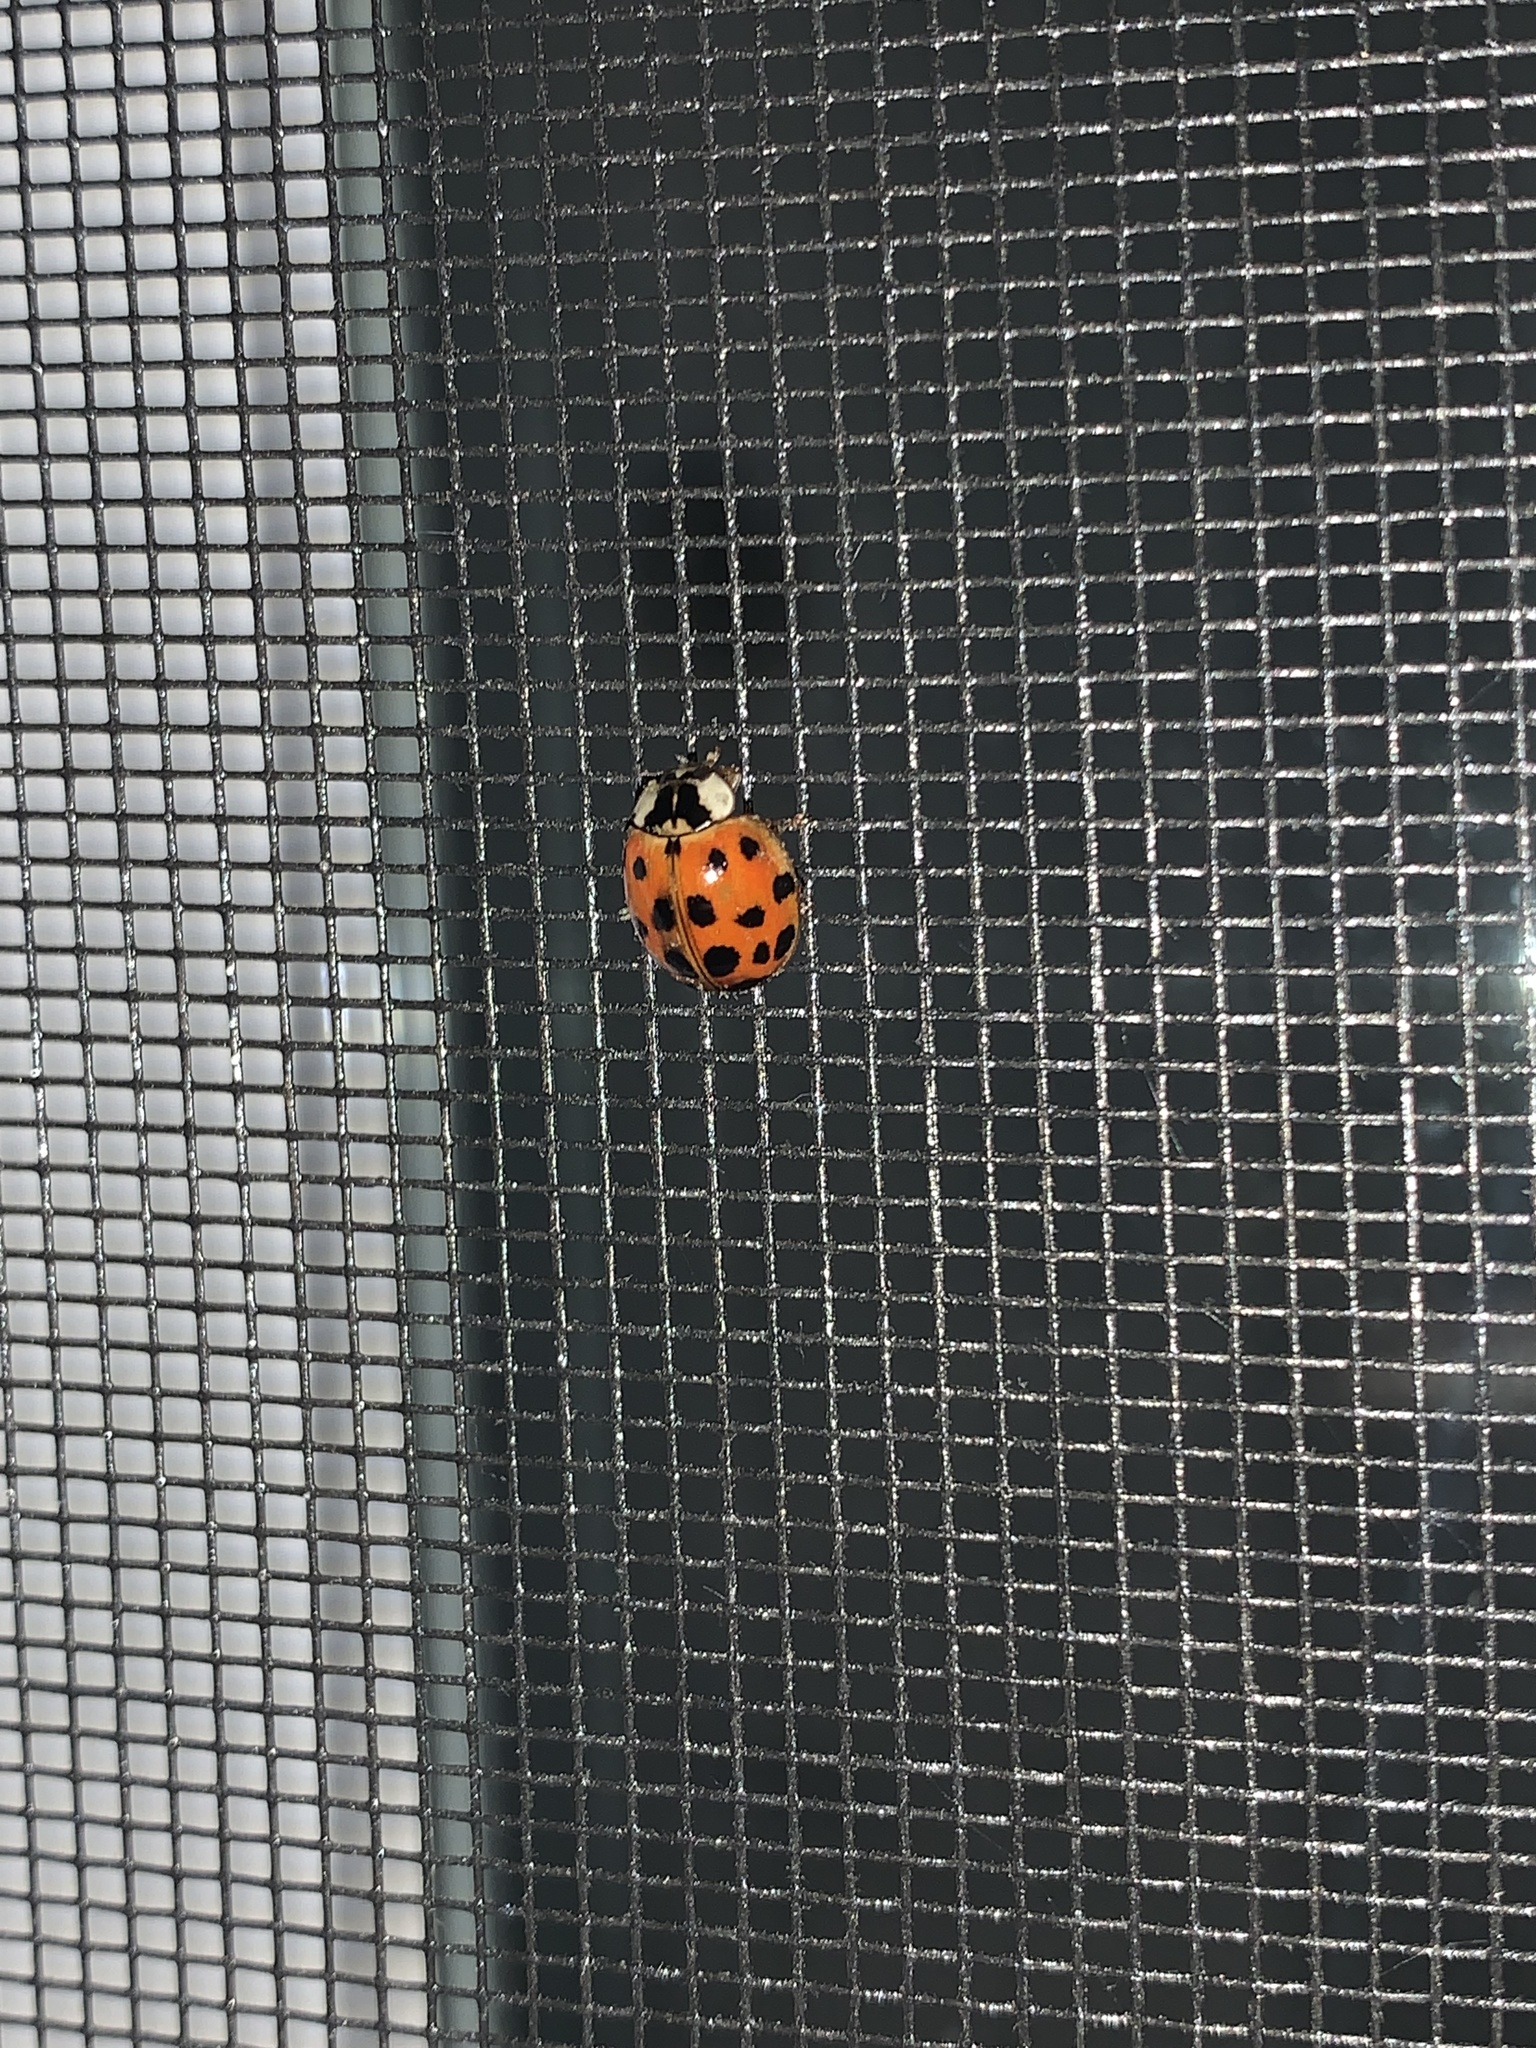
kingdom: Animalia
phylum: Arthropoda
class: Insecta
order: Coleoptera
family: Coccinellidae
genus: Harmonia
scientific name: Harmonia axyridis
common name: Harlequin ladybird
